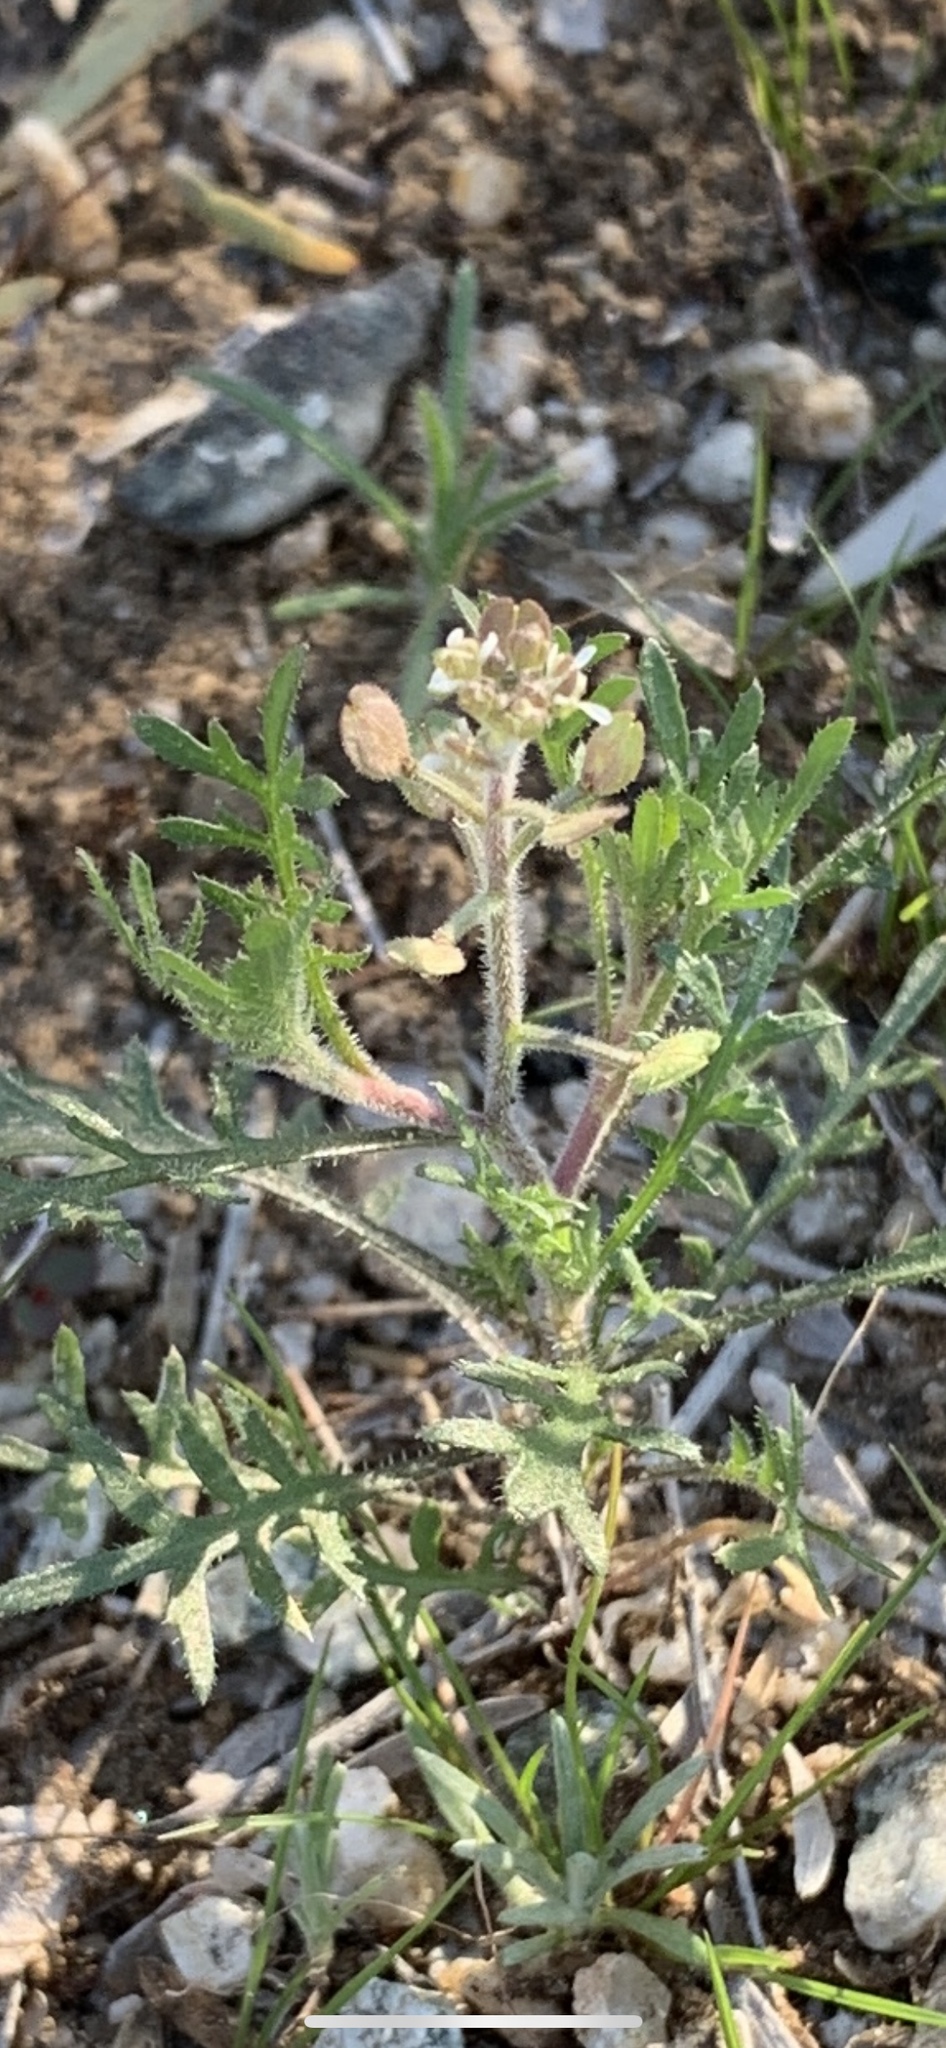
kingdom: Plantae
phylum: Tracheophyta
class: Magnoliopsida
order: Brassicales
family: Brassicaceae
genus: Lepidium
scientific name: Lepidium lasiocarpum
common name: Hairy-pod pepperwort
